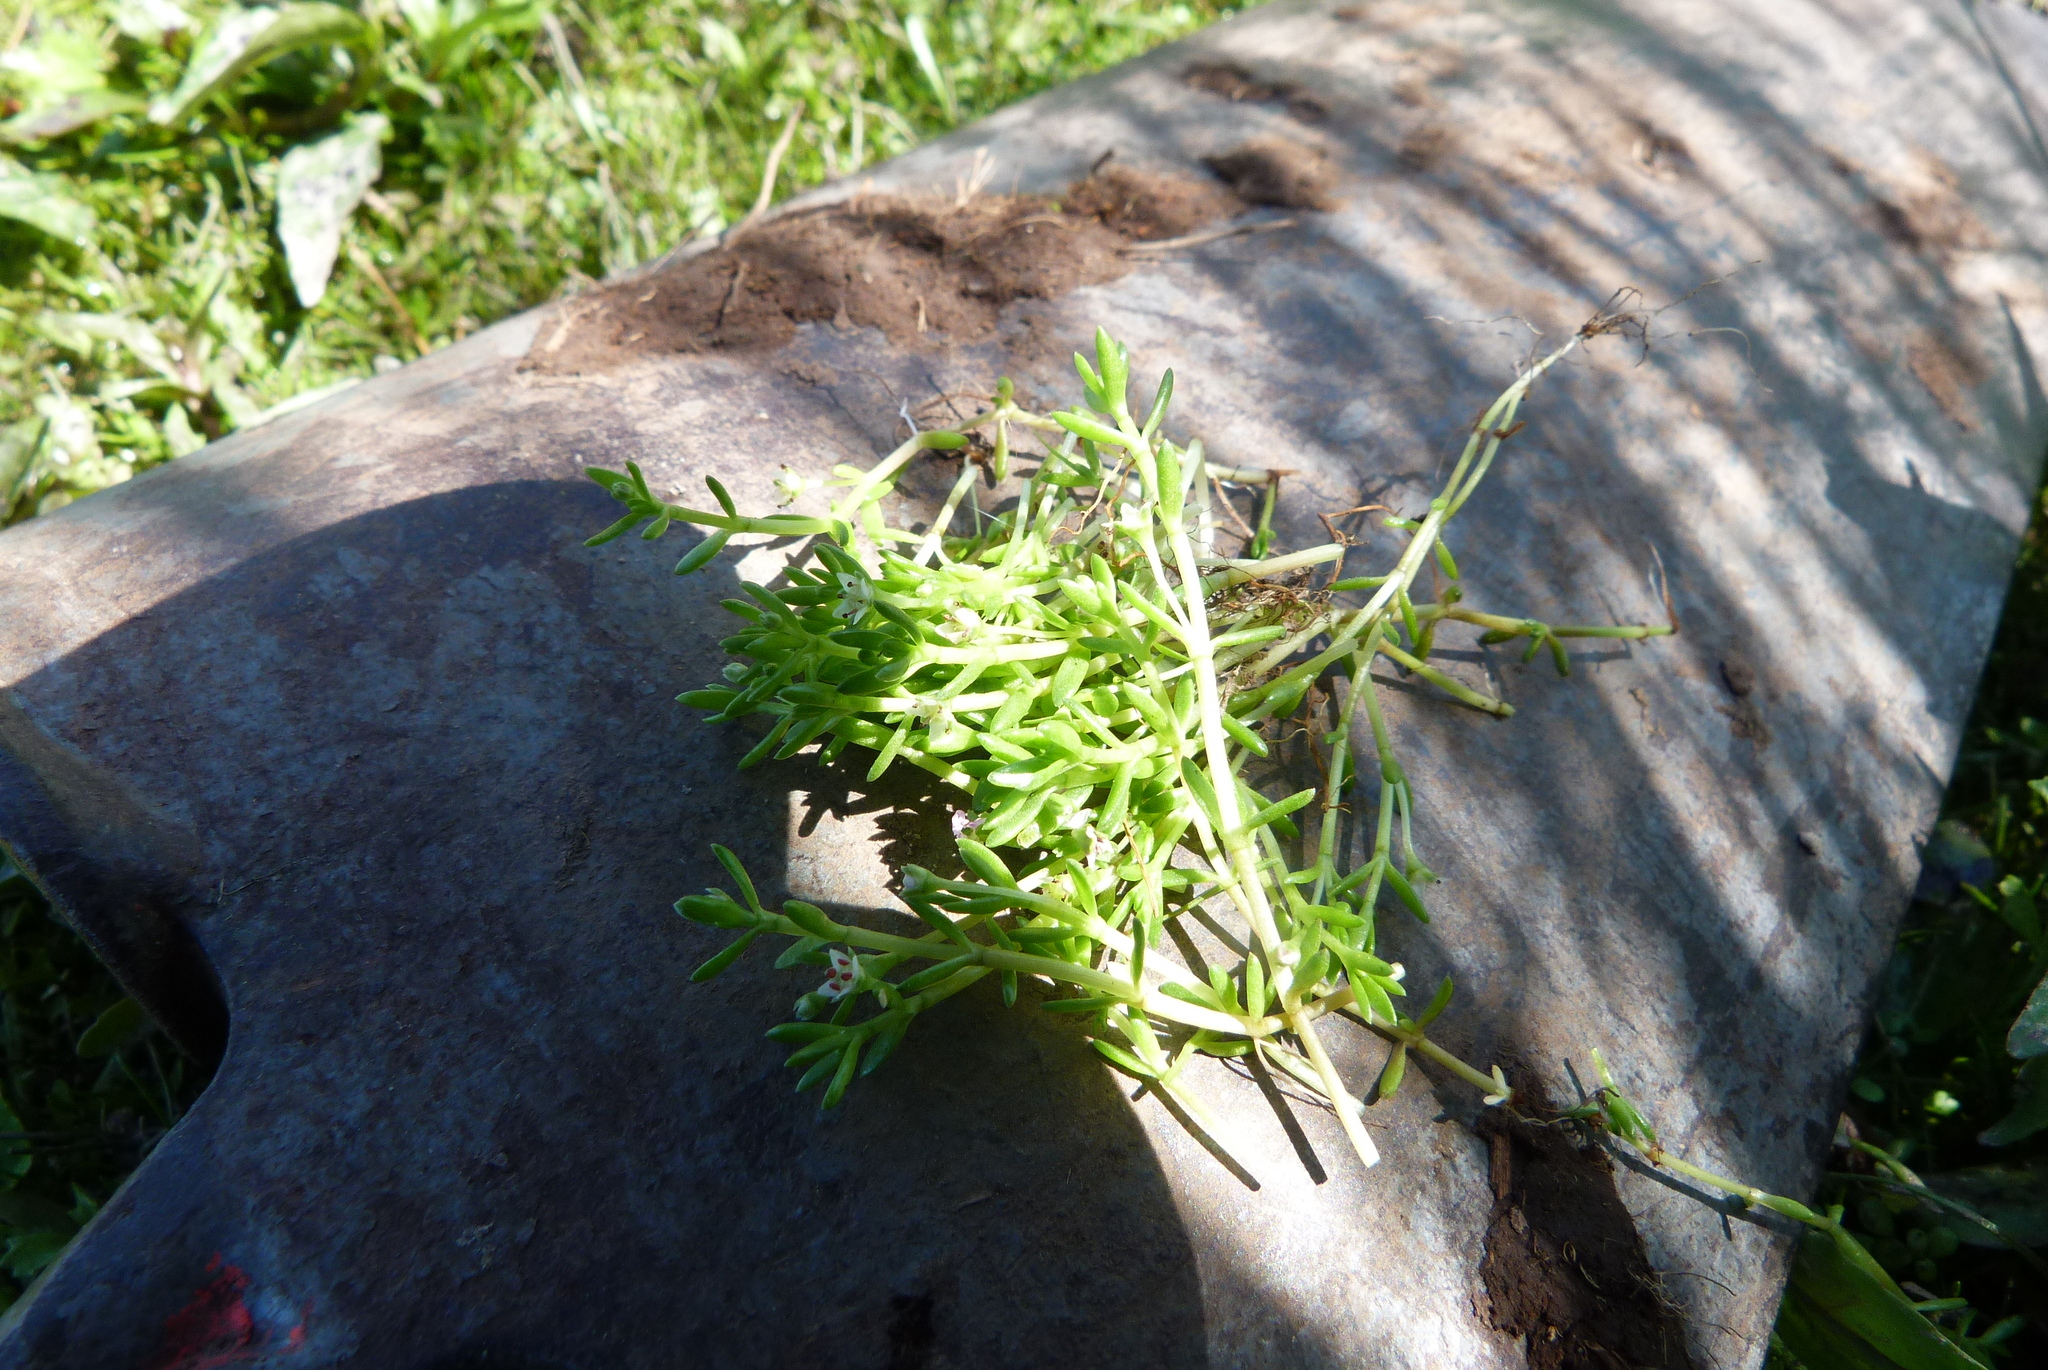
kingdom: Plantae
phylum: Tracheophyta
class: Magnoliopsida
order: Saxifragales
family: Crassulaceae
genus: Crassula
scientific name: Crassula sinclairii
